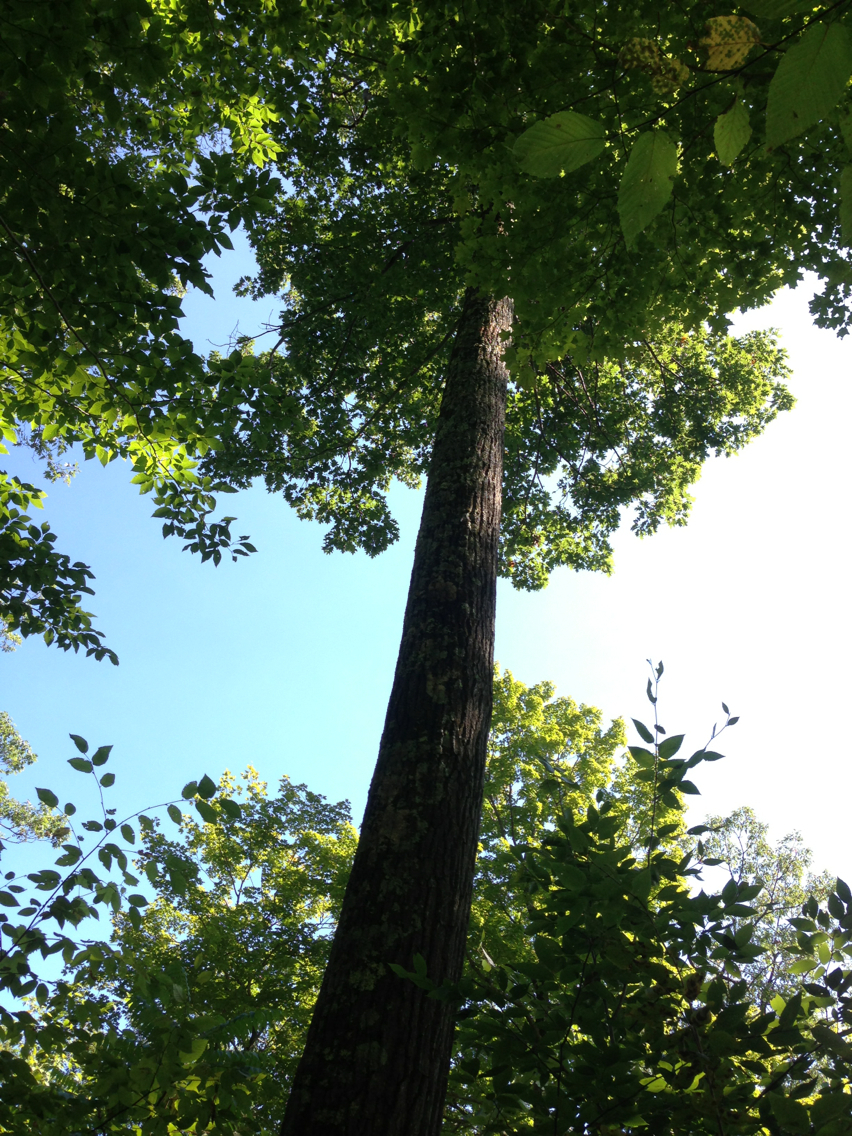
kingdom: Plantae
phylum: Tracheophyta
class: Magnoliopsida
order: Fagales
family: Fagaceae
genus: Quercus
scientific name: Quercus rubra
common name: Red oak
